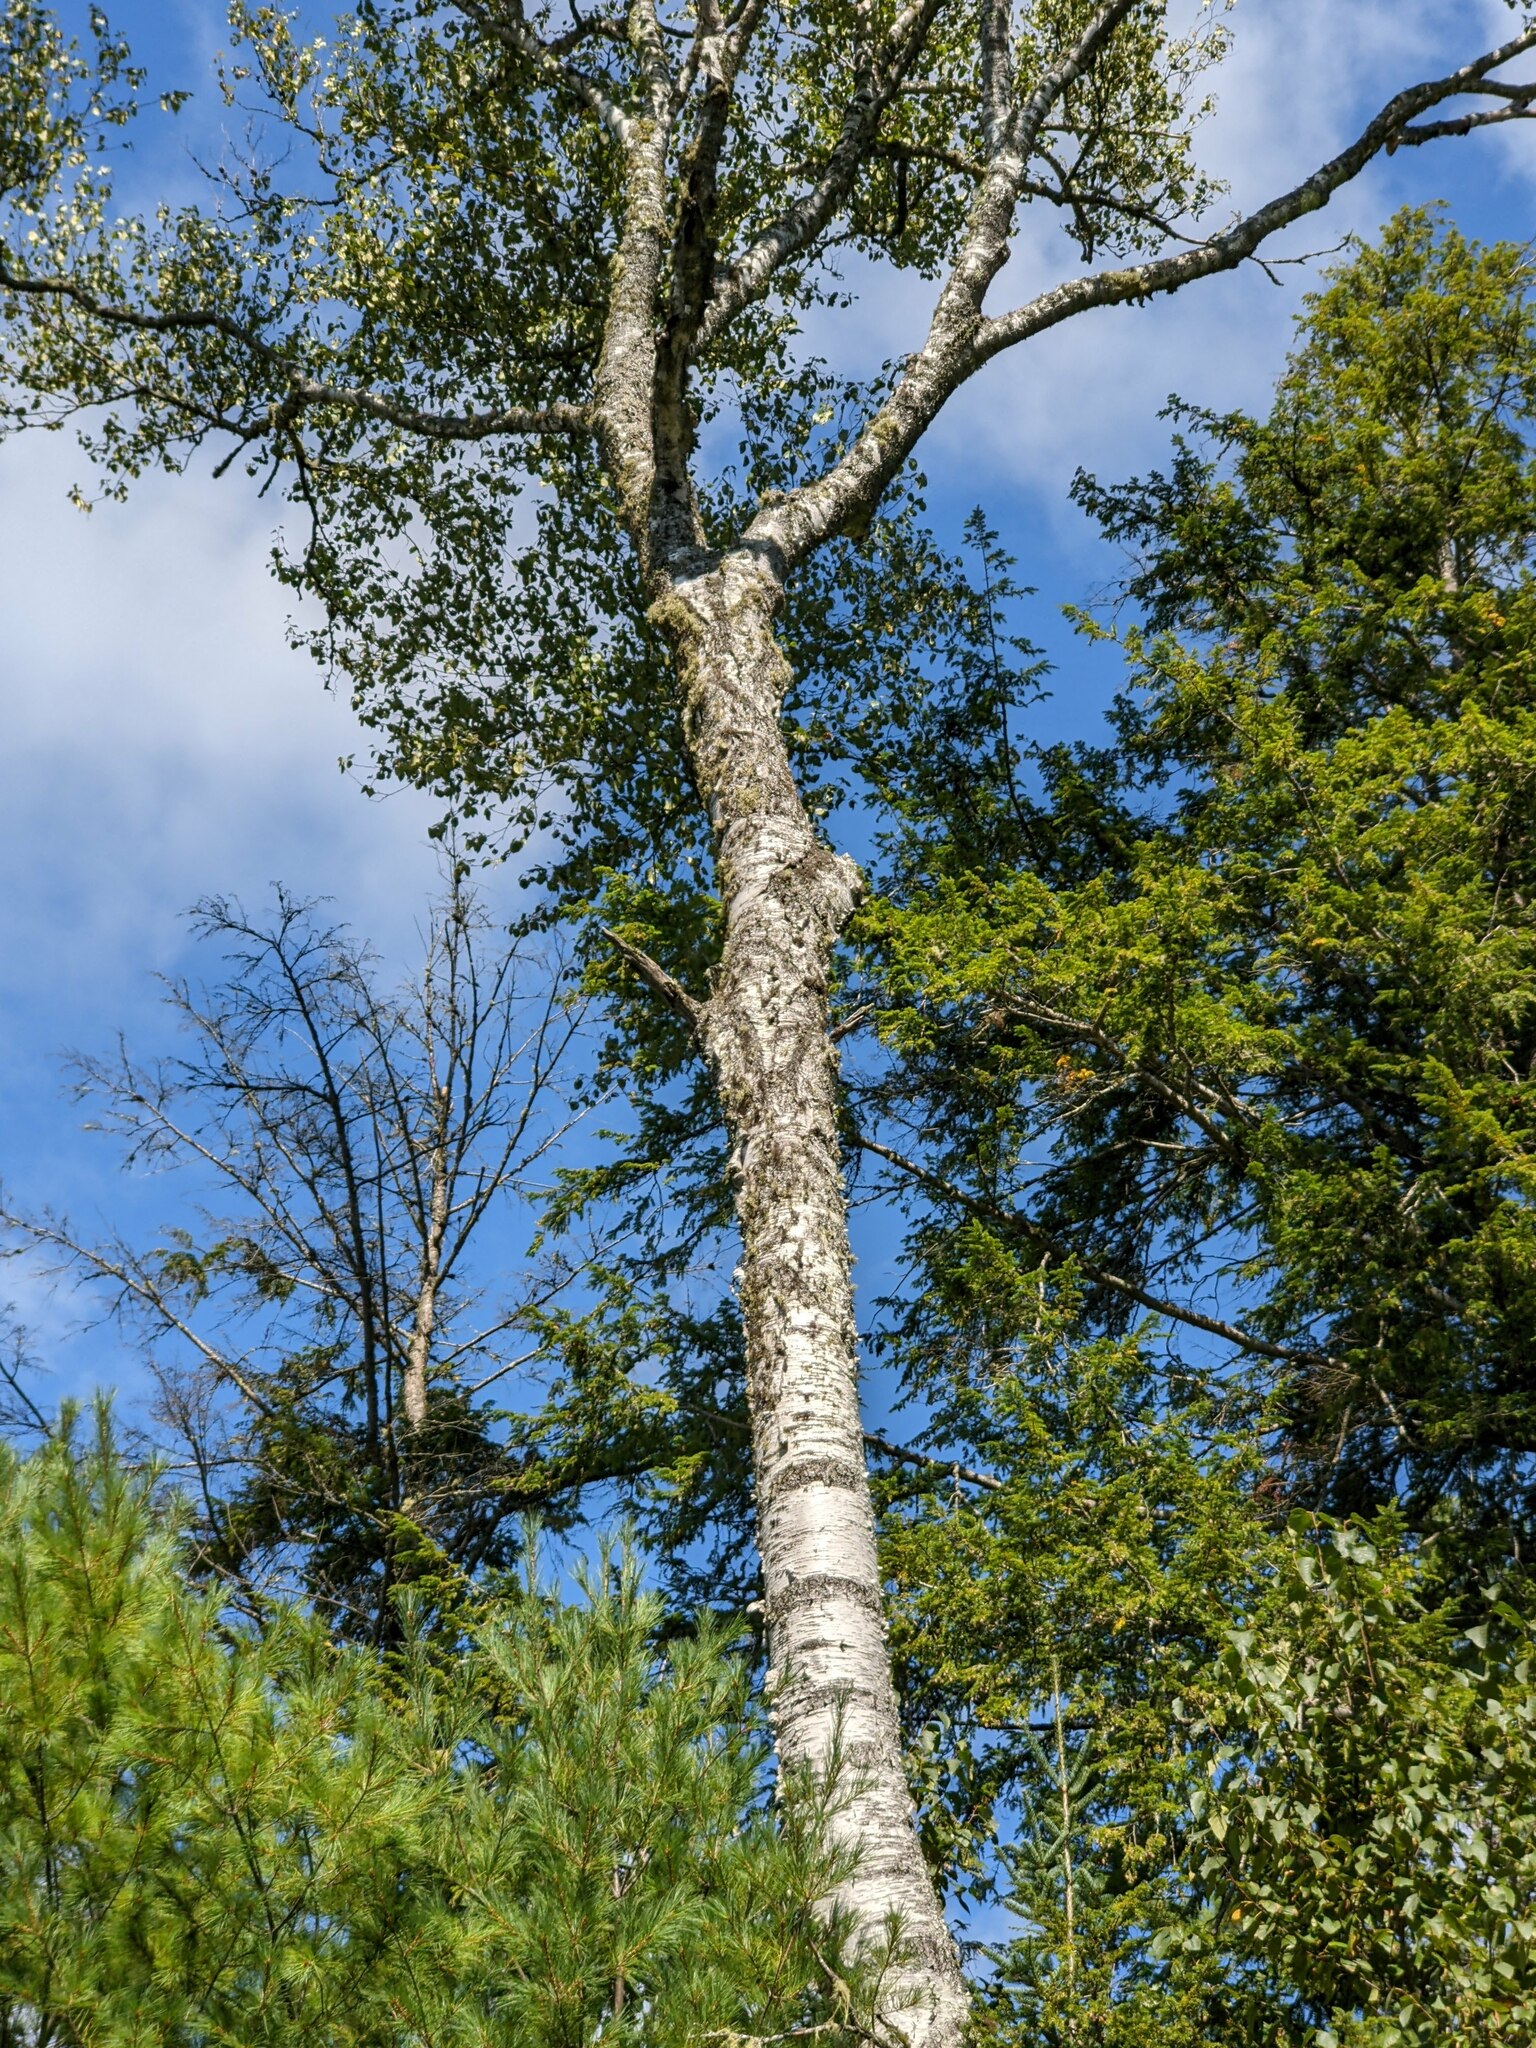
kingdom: Plantae
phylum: Tracheophyta
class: Magnoliopsida
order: Fagales
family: Betulaceae
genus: Betula
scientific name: Betula alleghaniensis
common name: Yellow birch
